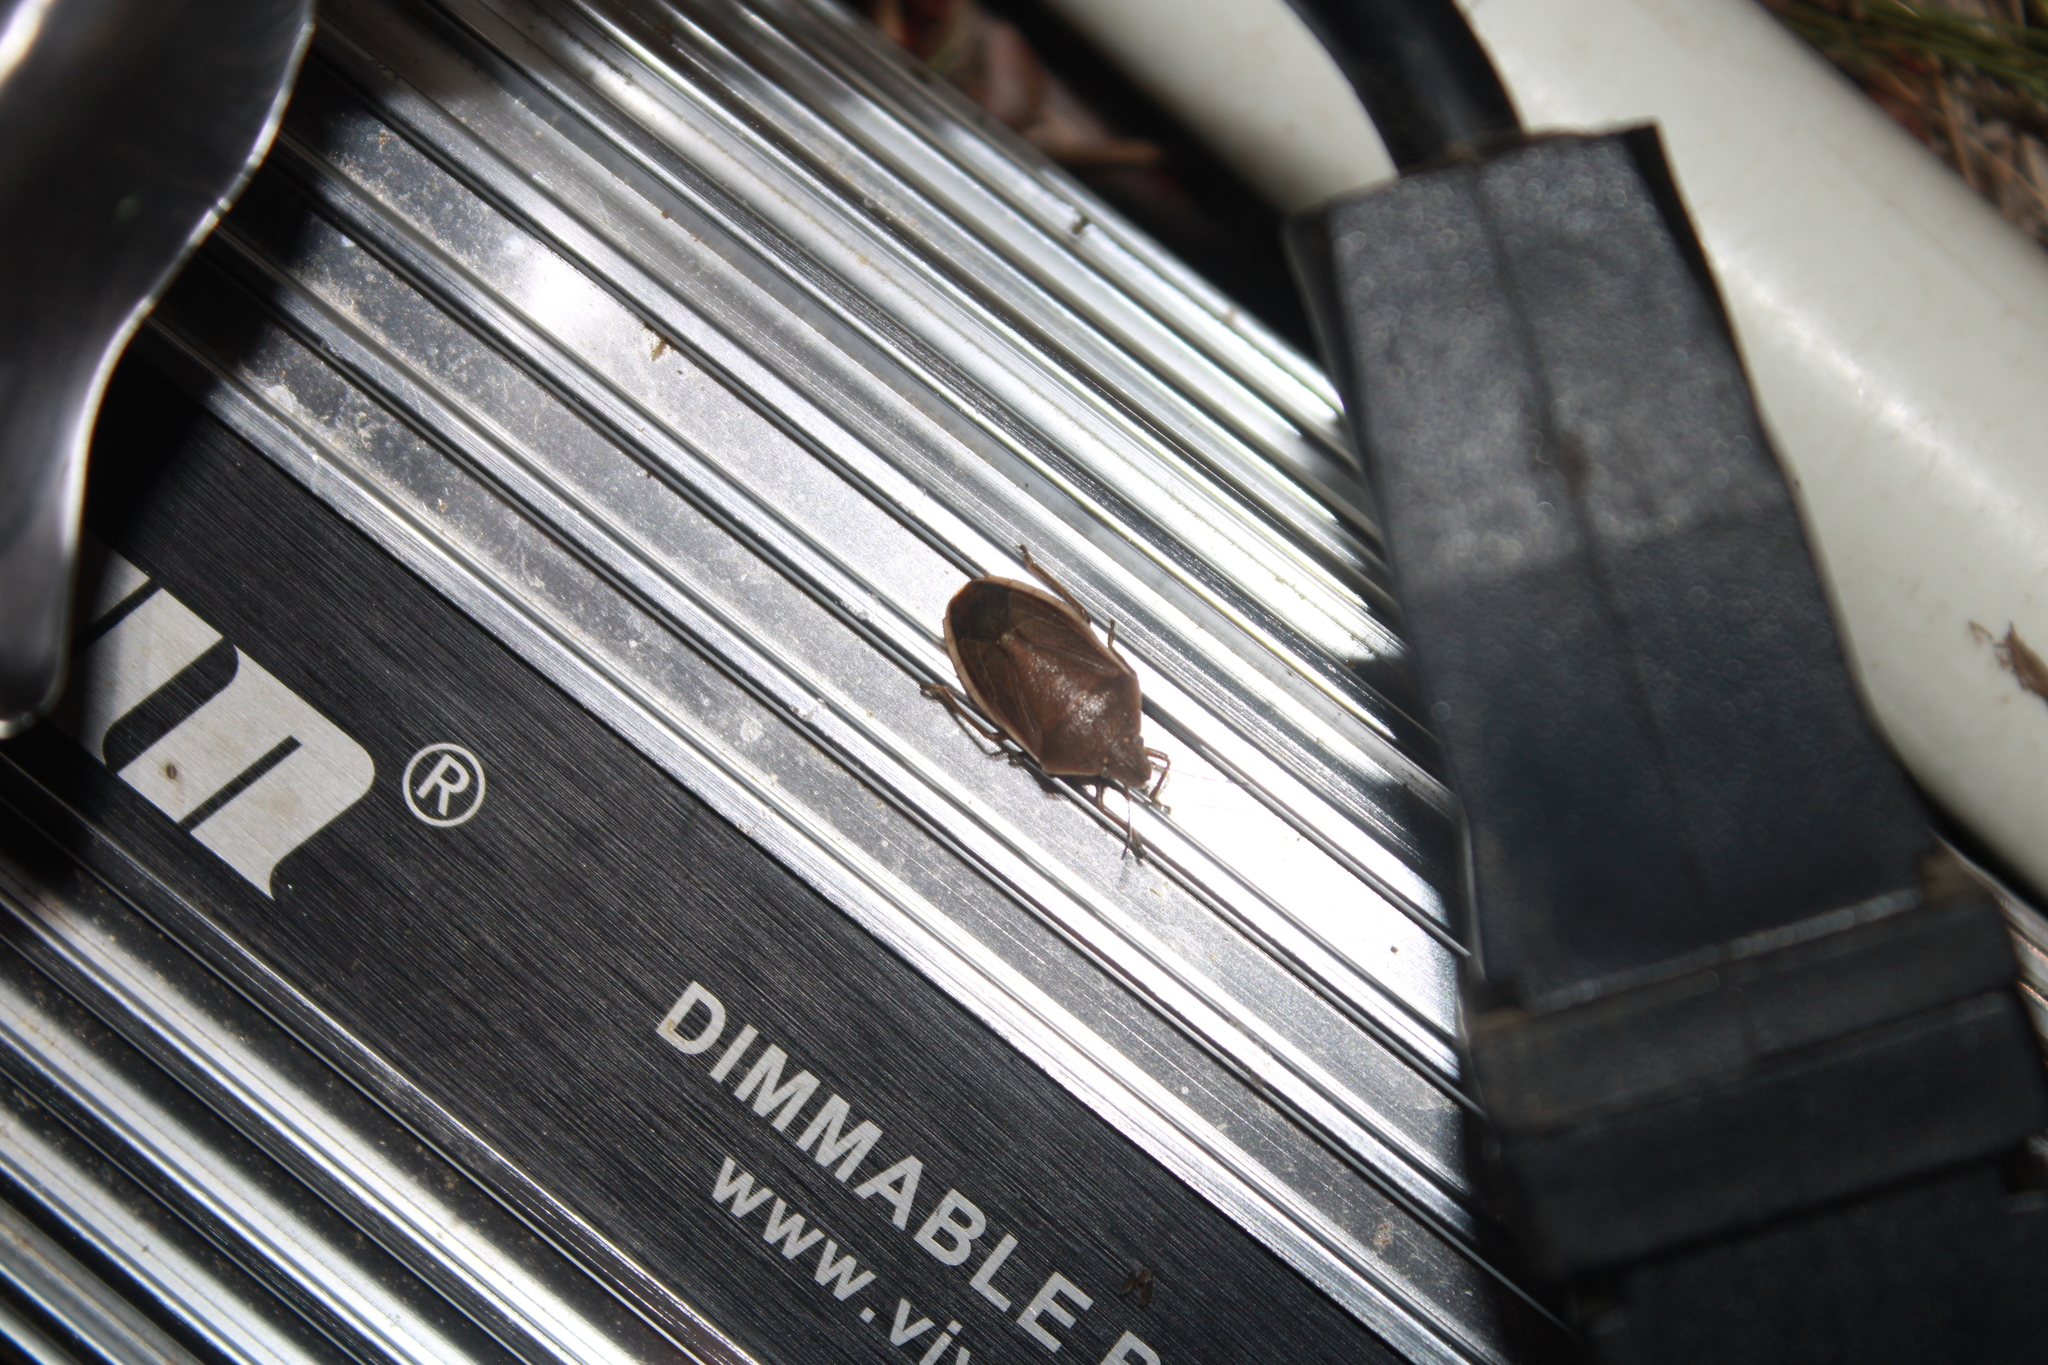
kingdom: Animalia
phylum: Arthropoda
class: Insecta
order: Hemiptera
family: Pentatomidae
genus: Chlorochroa
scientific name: Chlorochroa senilis
